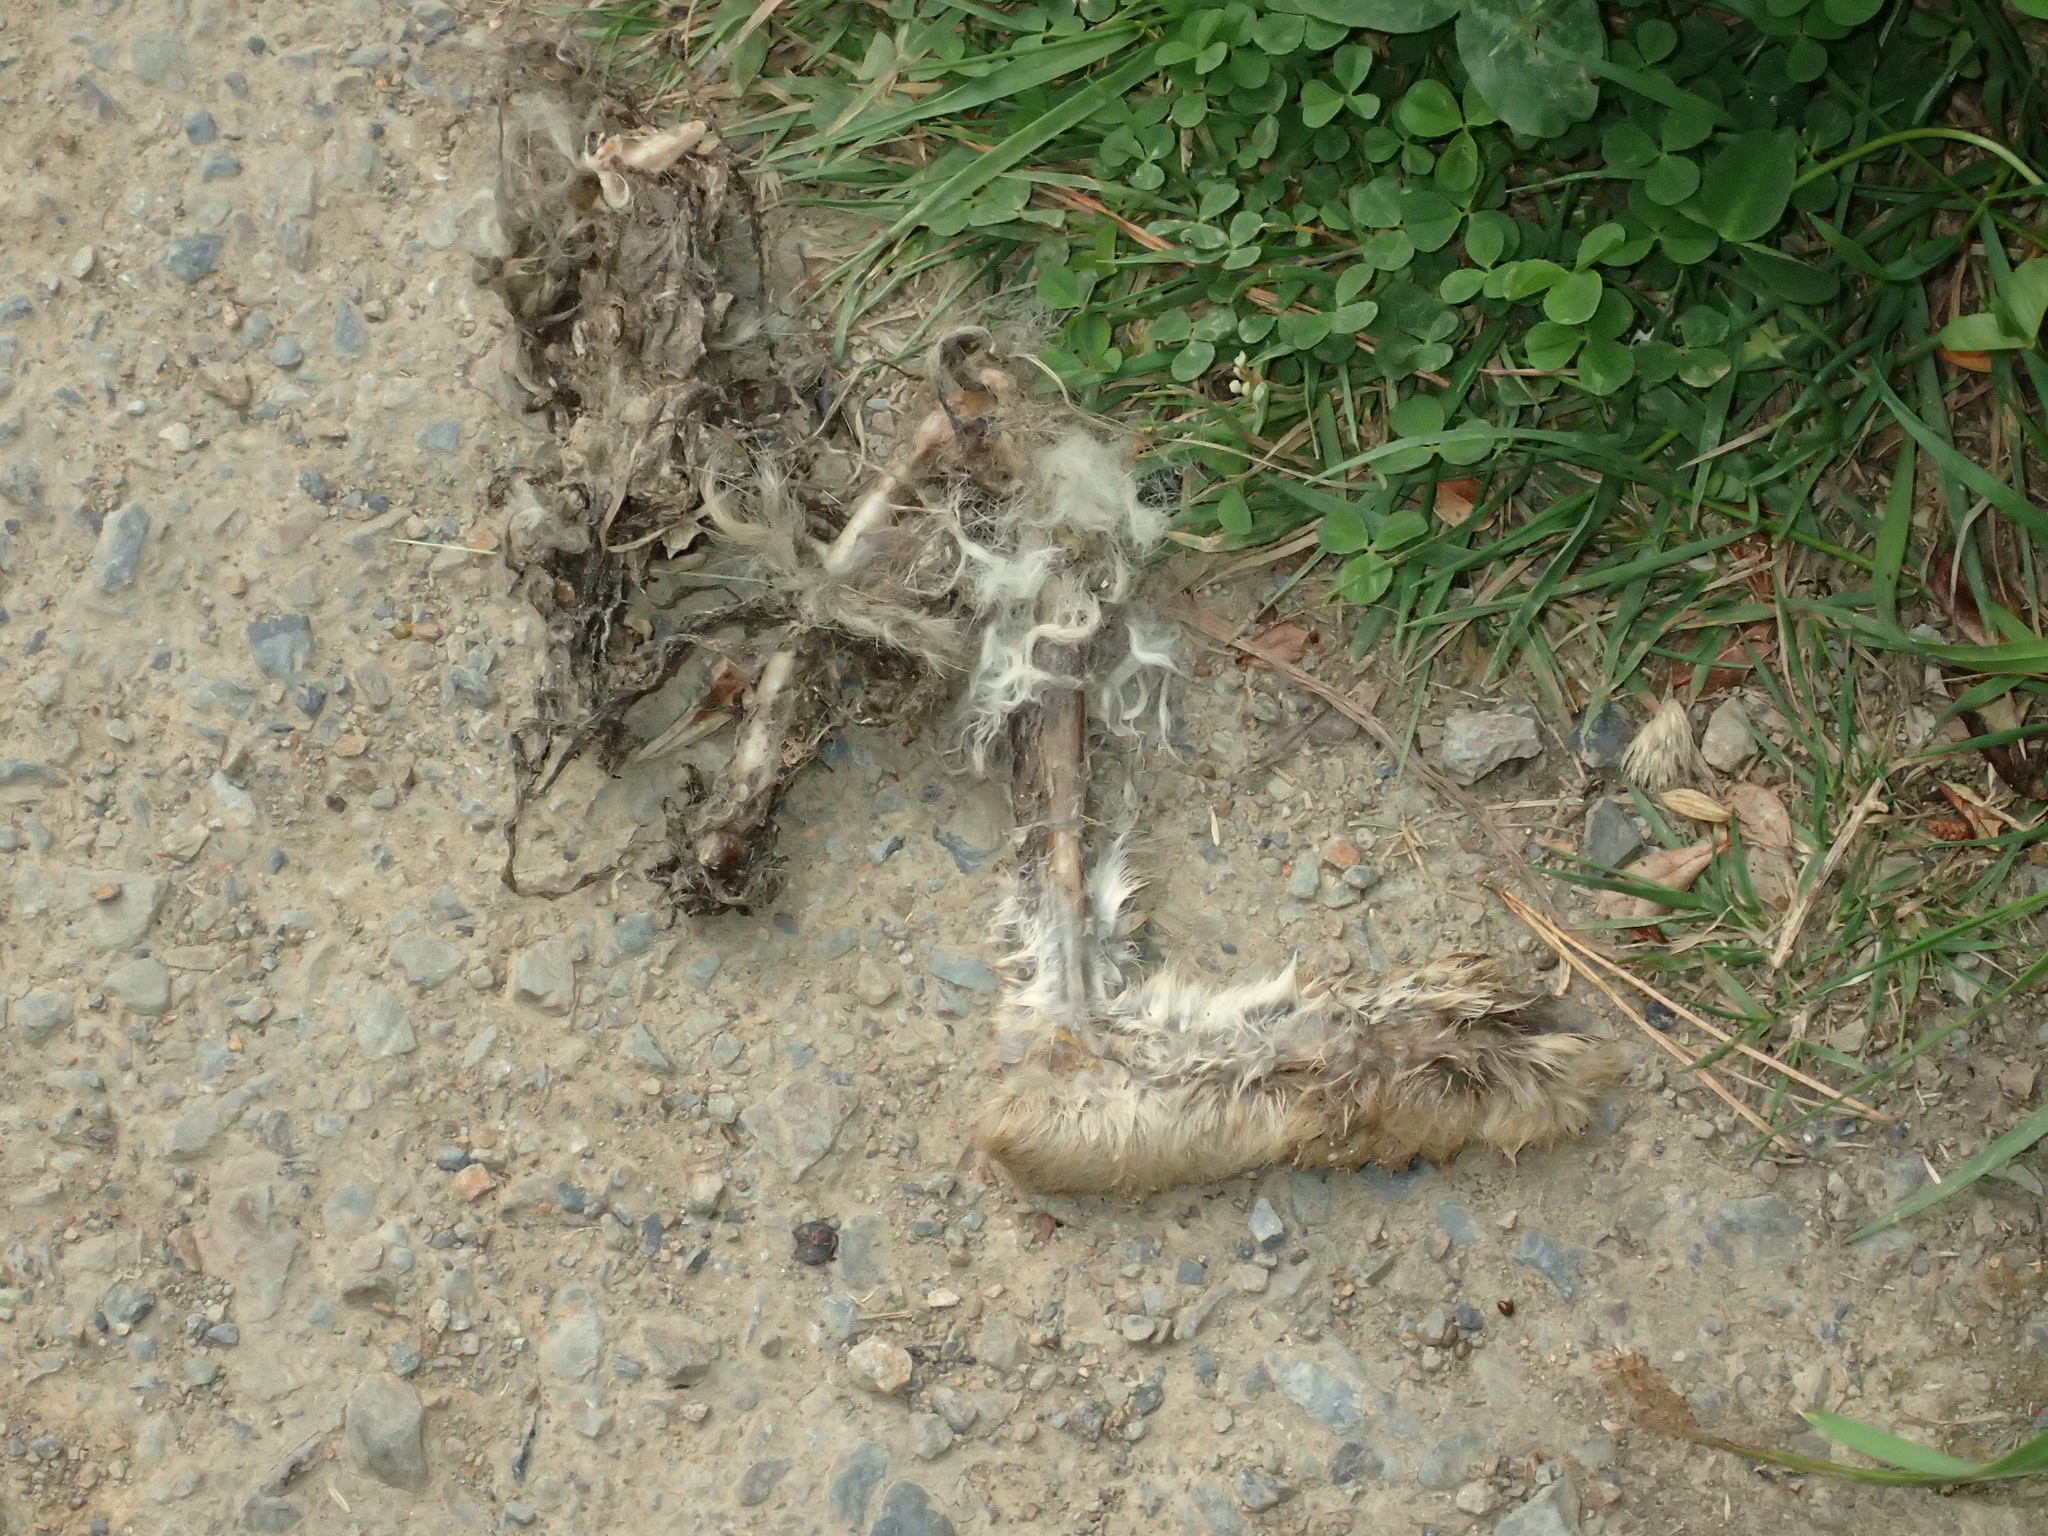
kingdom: Animalia
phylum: Chordata
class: Mammalia
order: Lagomorpha
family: Leporidae
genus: Oryctolagus
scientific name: Oryctolagus cuniculus
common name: European rabbit
